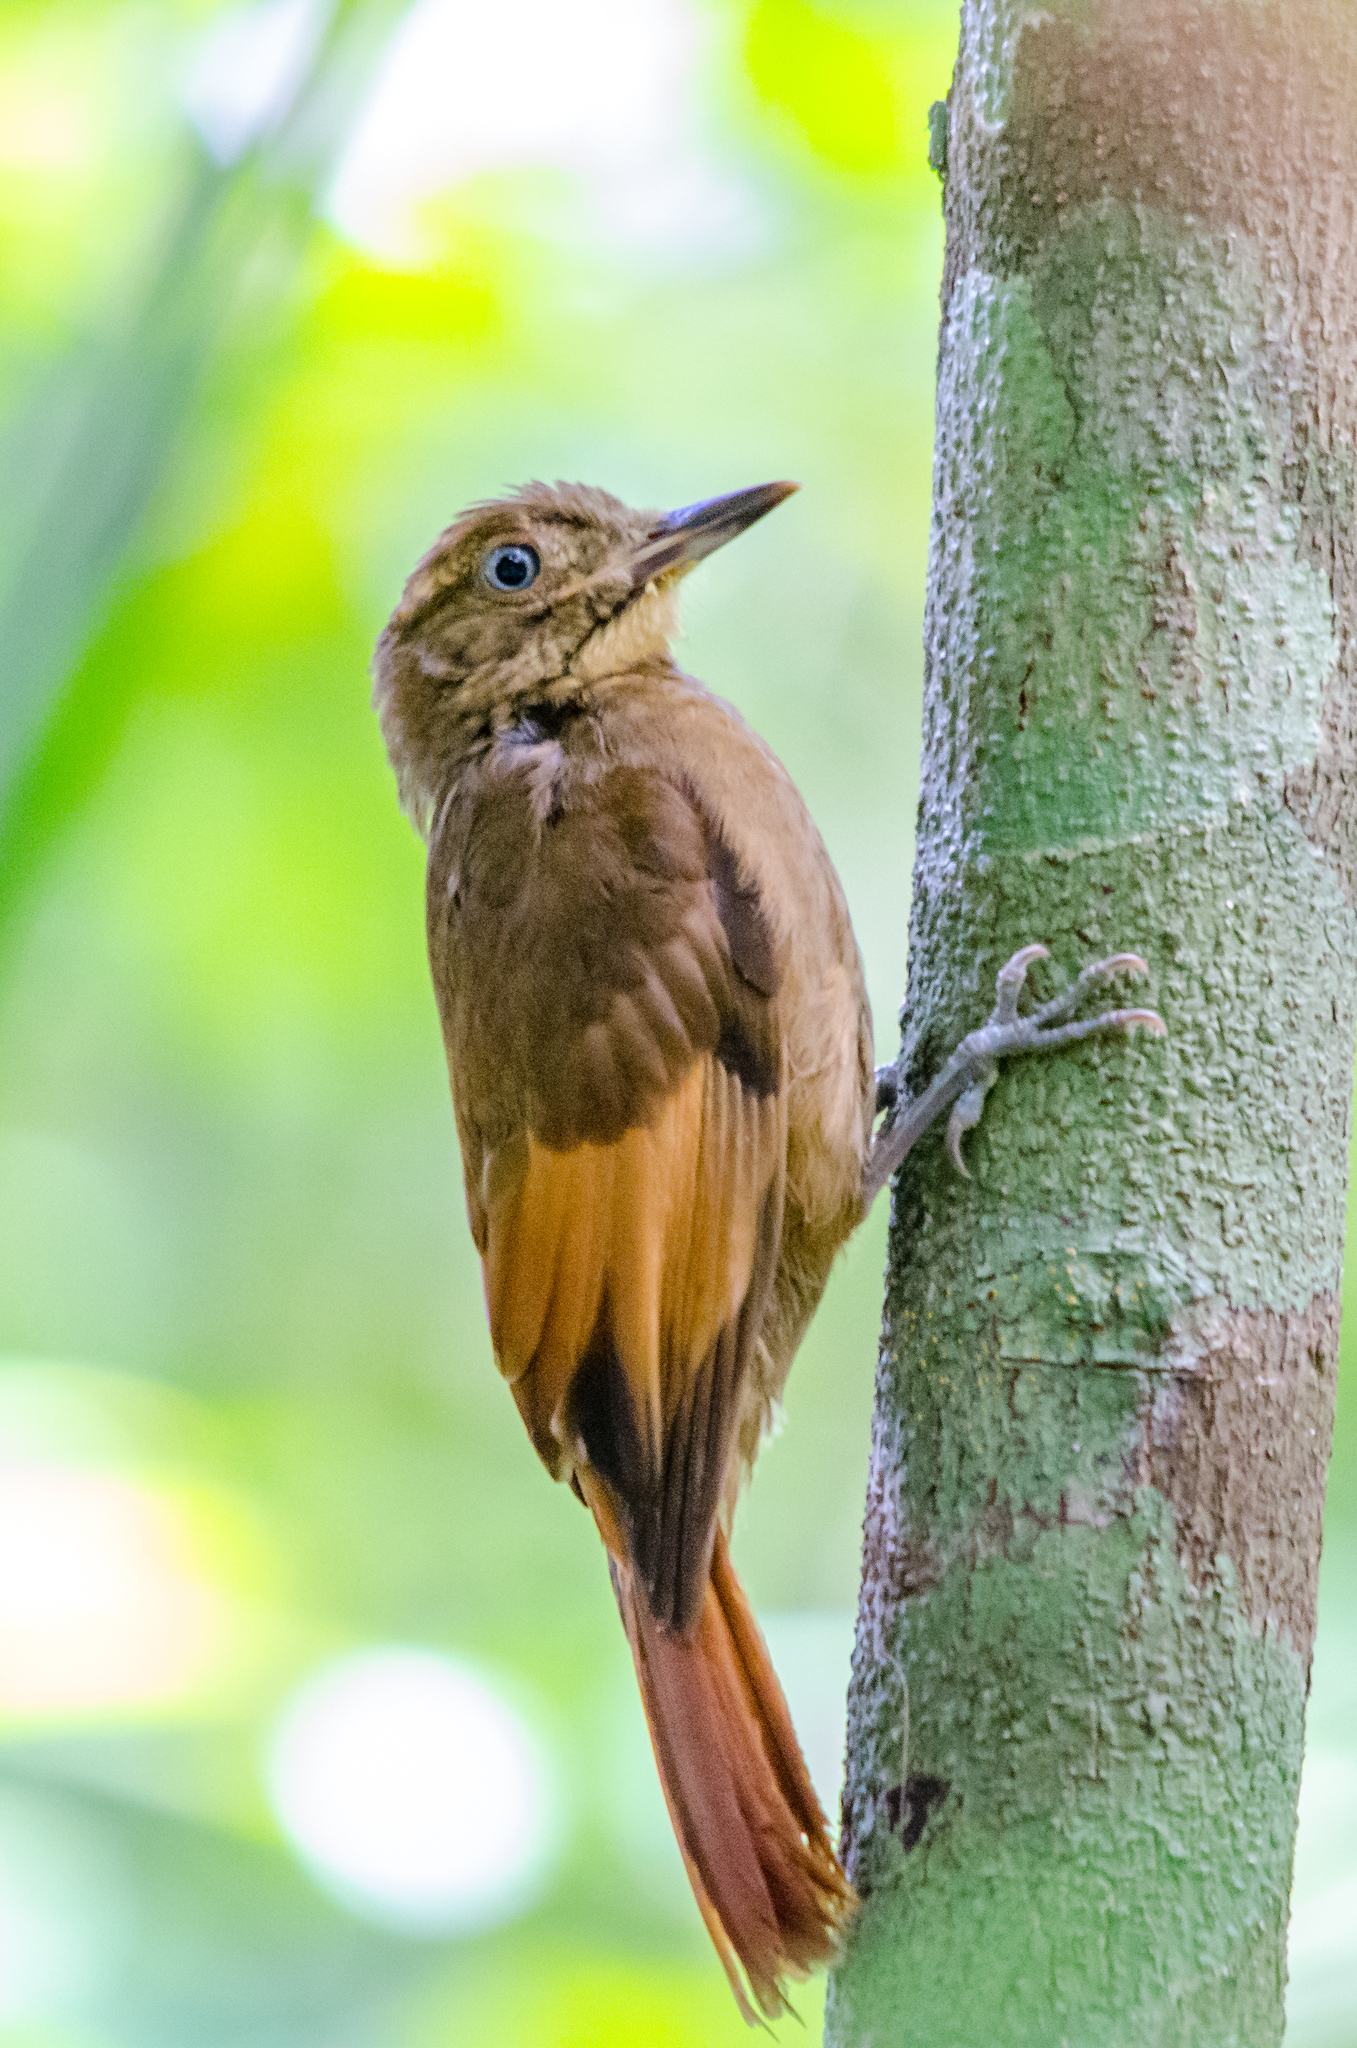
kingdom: Animalia
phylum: Chordata
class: Aves
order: Passeriformes
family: Furnariidae
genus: Dendrocincla
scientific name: Dendrocincla anabatina
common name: Tawny-winged woodcreeper
